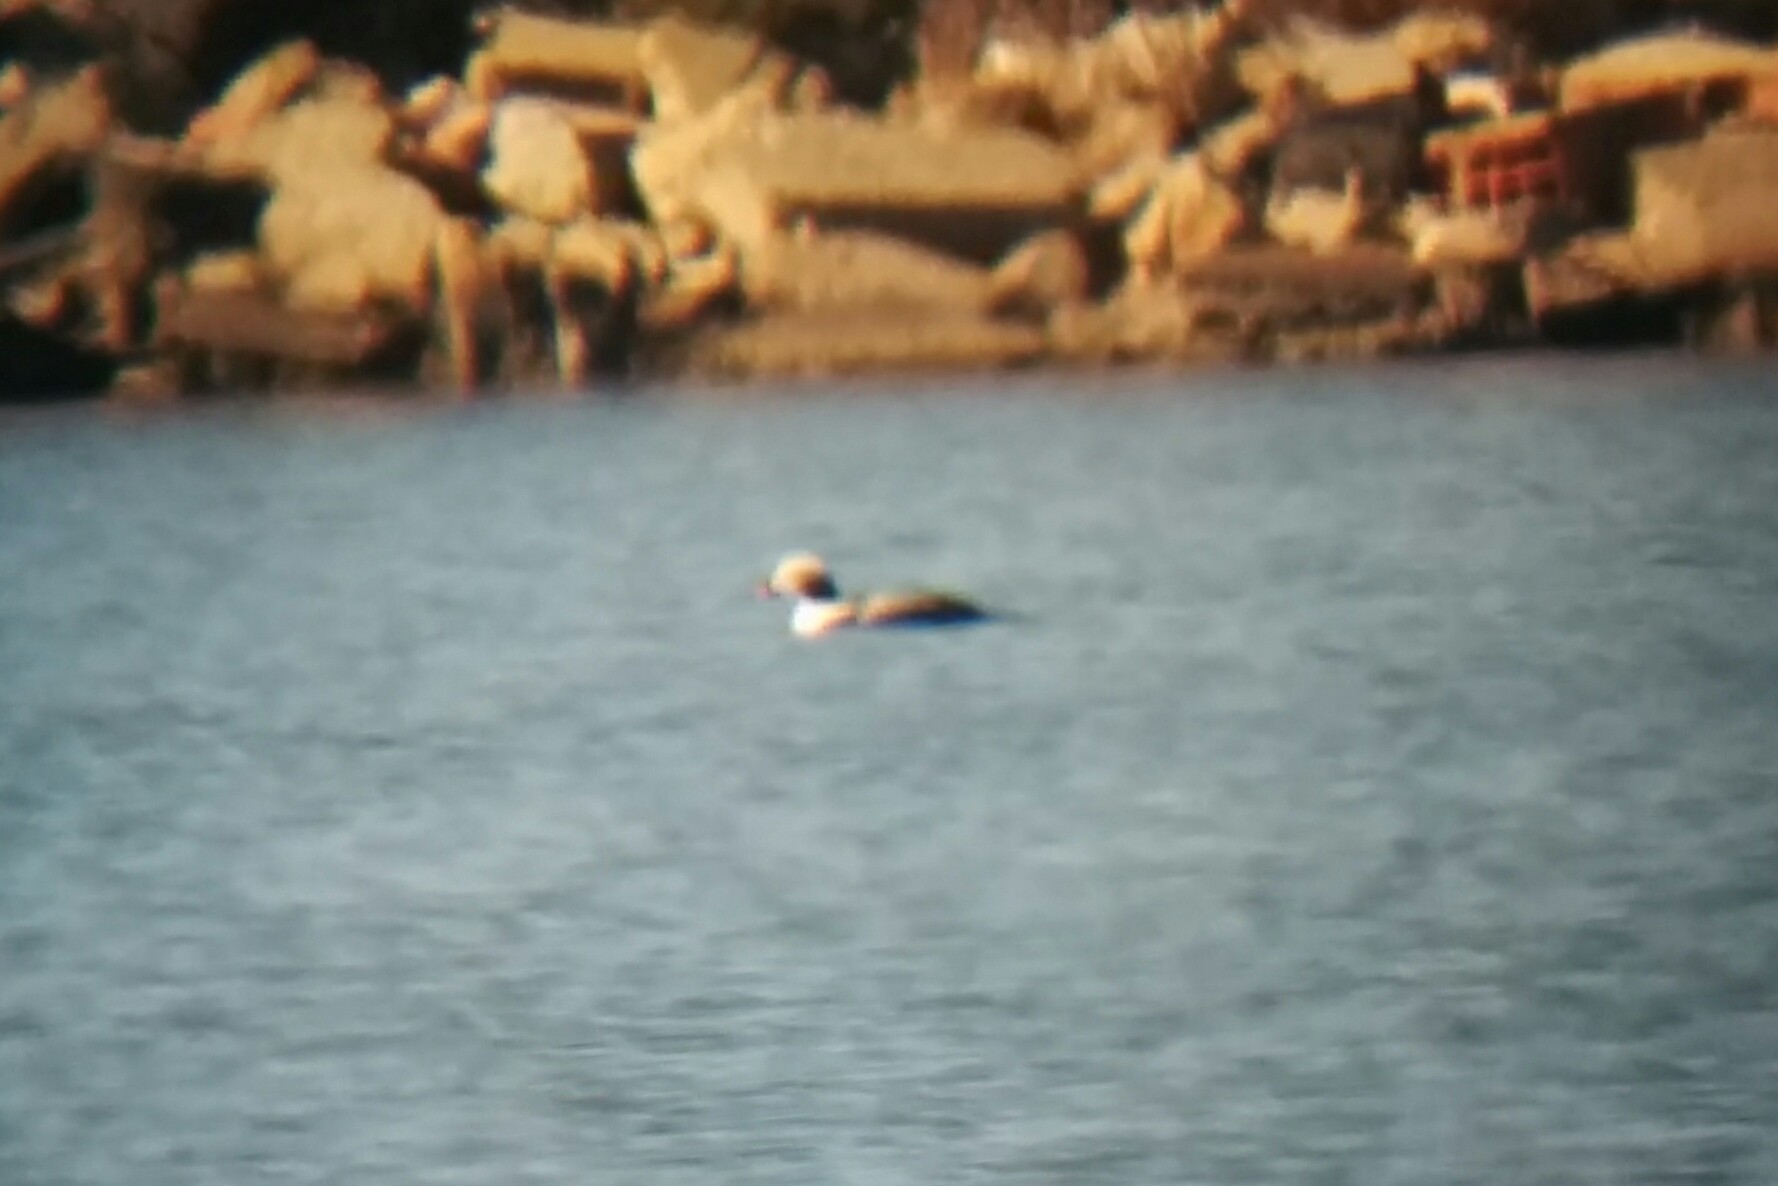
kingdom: Animalia
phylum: Chordata
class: Aves
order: Anseriformes
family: Anatidae
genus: Clangula
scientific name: Clangula hyemalis
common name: Long-tailed duck
